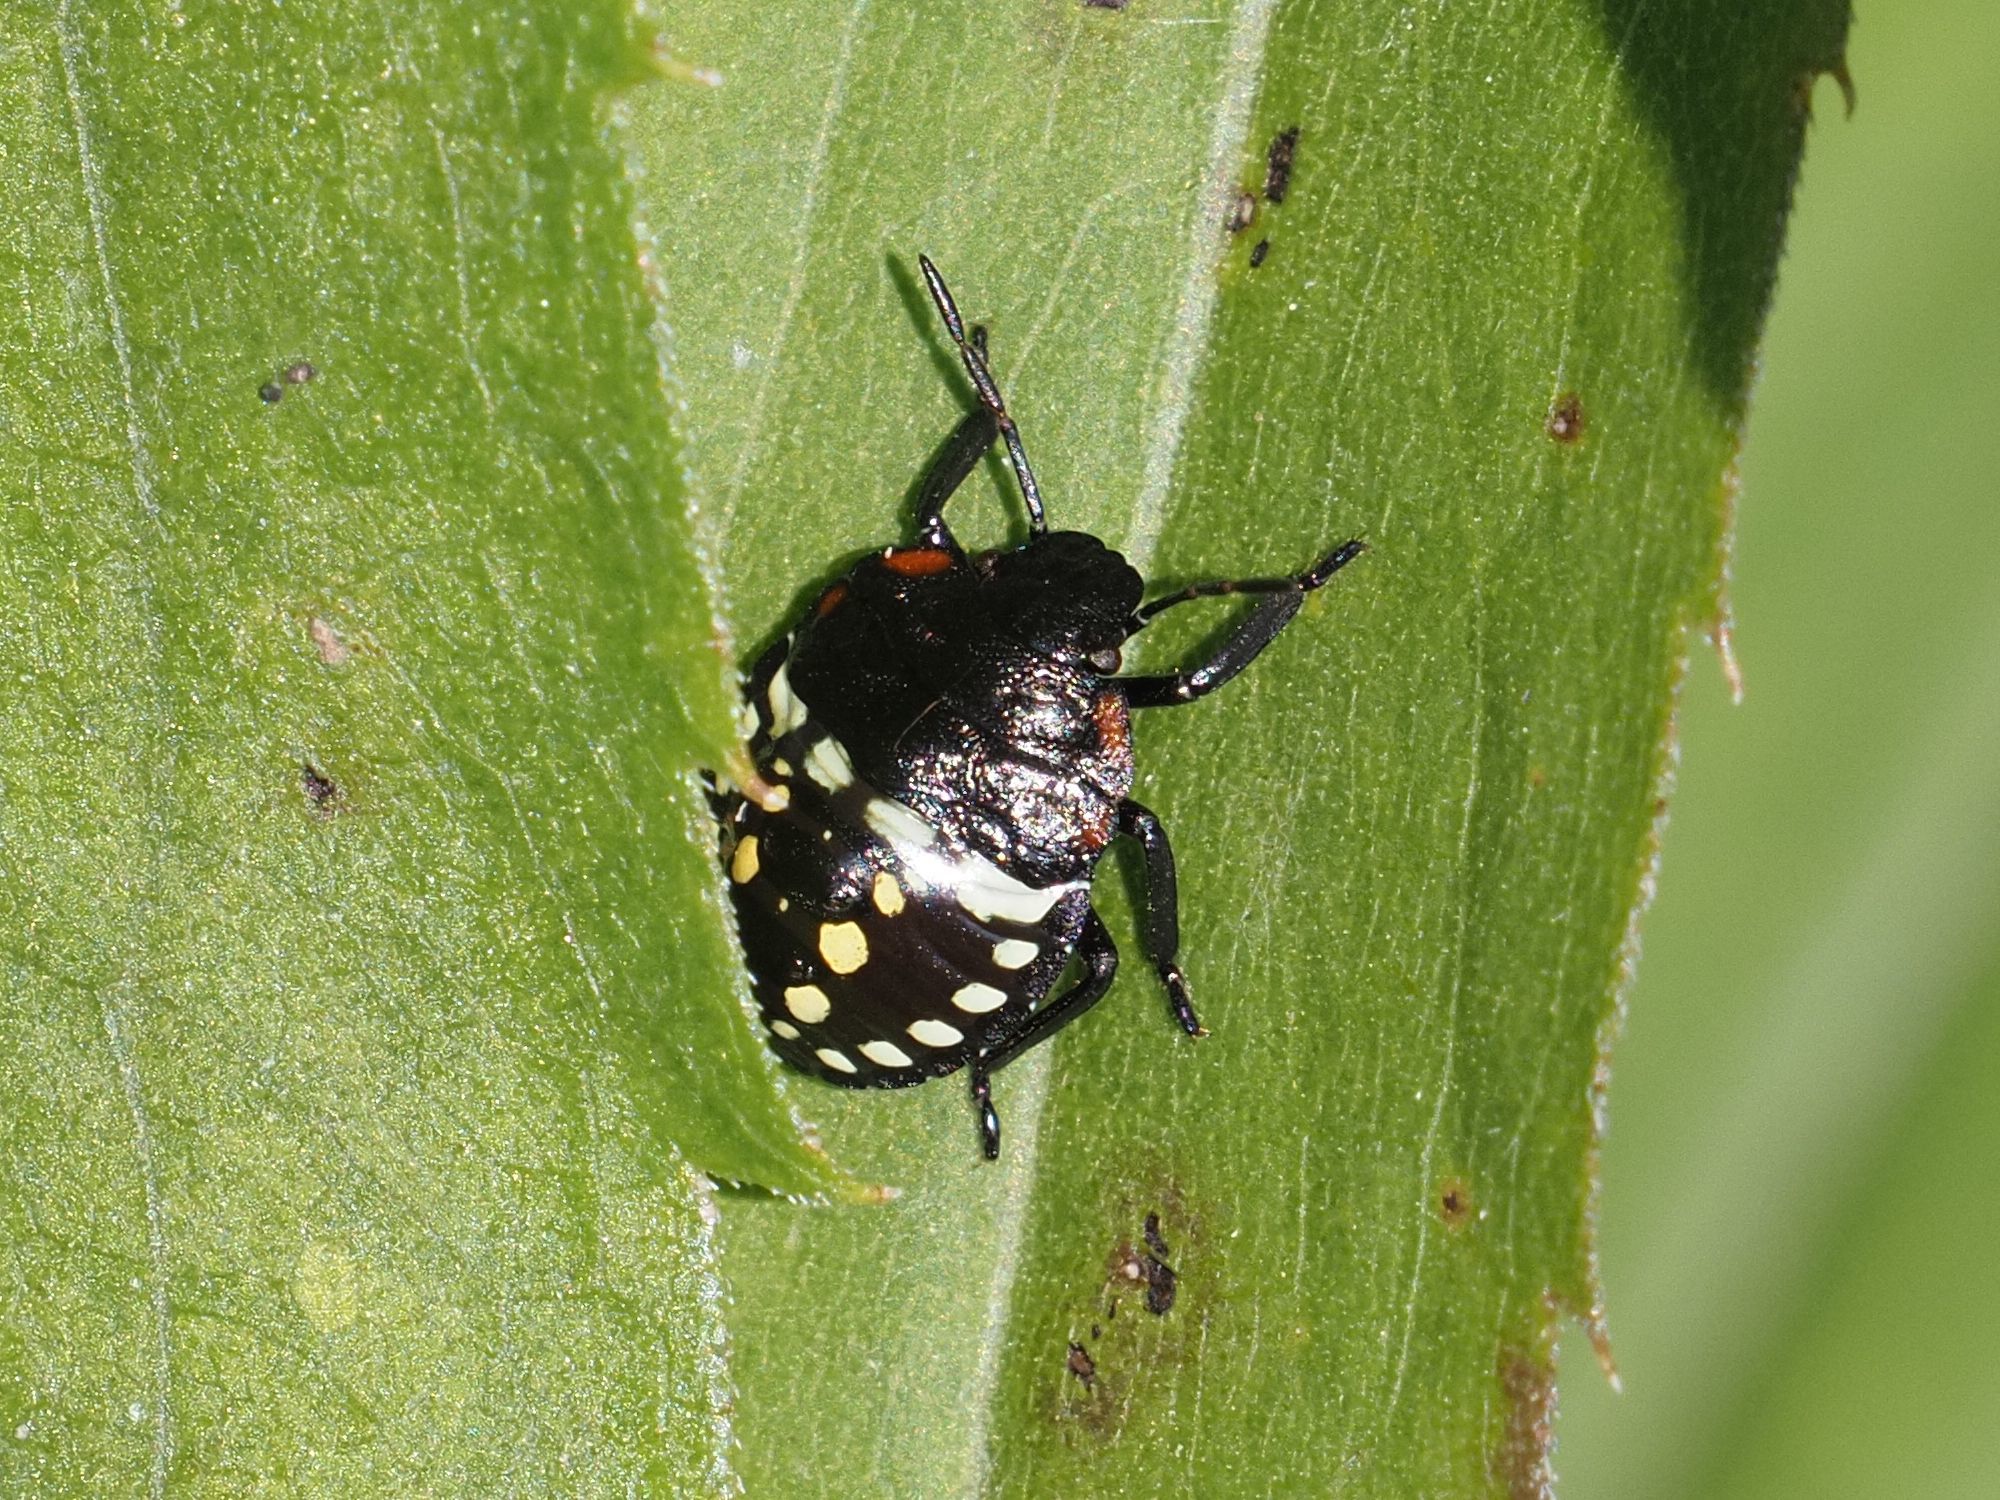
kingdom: Animalia
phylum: Arthropoda
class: Insecta
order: Hemiptera
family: Pentatomidae
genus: Nezara
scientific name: Nezara viridula
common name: Southern green stink bug
